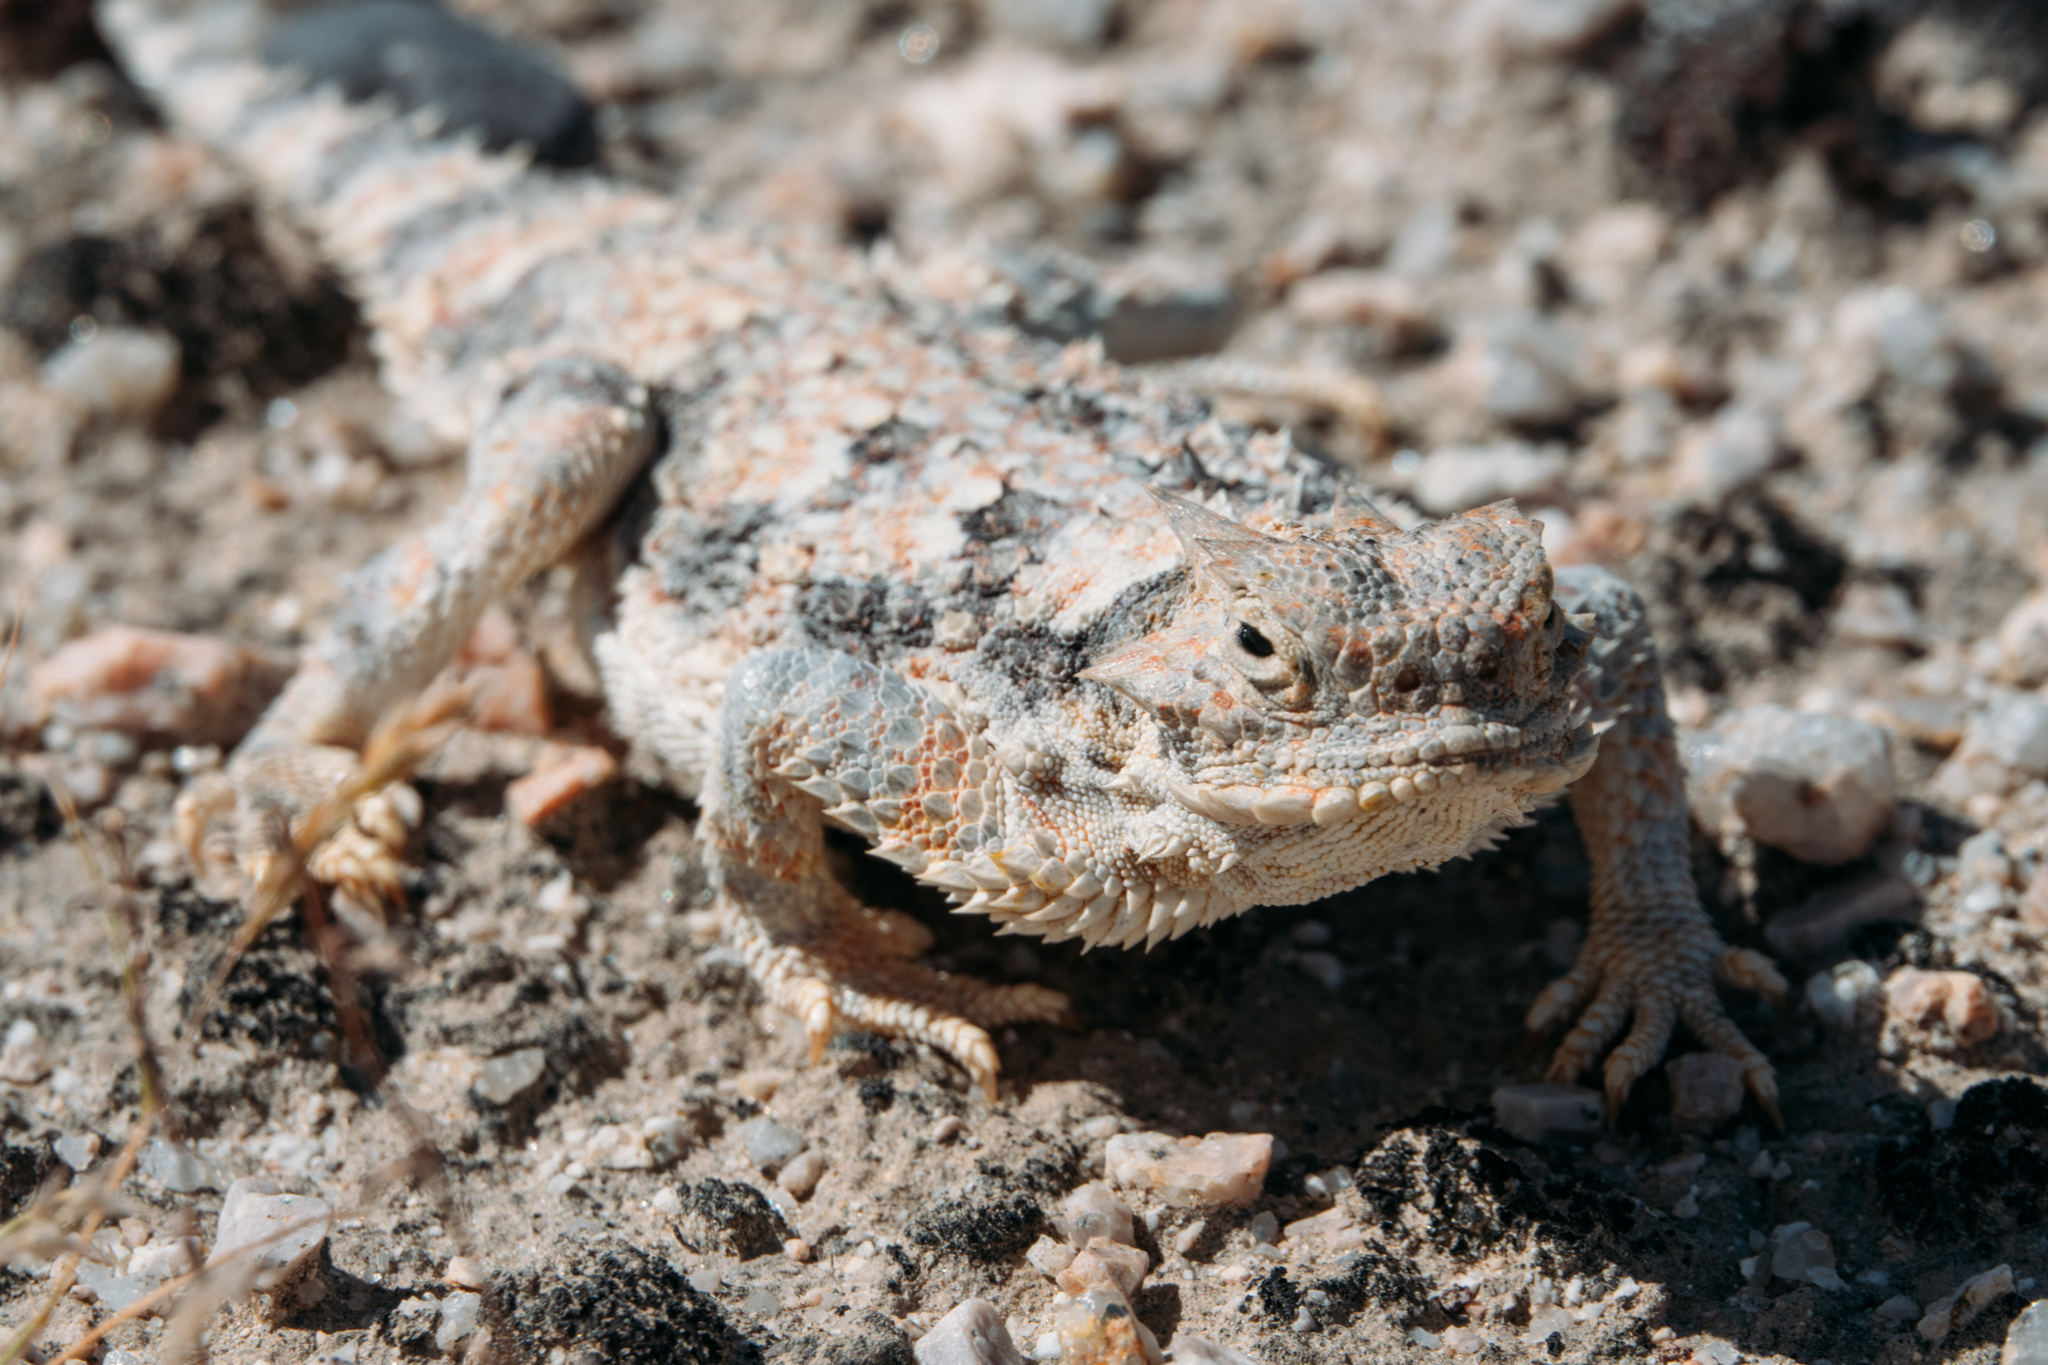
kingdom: Animalia
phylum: Chordata
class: Squamata
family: Phrynosomatidae
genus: Phrynosoma
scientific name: Phrynosoma platyrhinos
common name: Desert horned lizard
